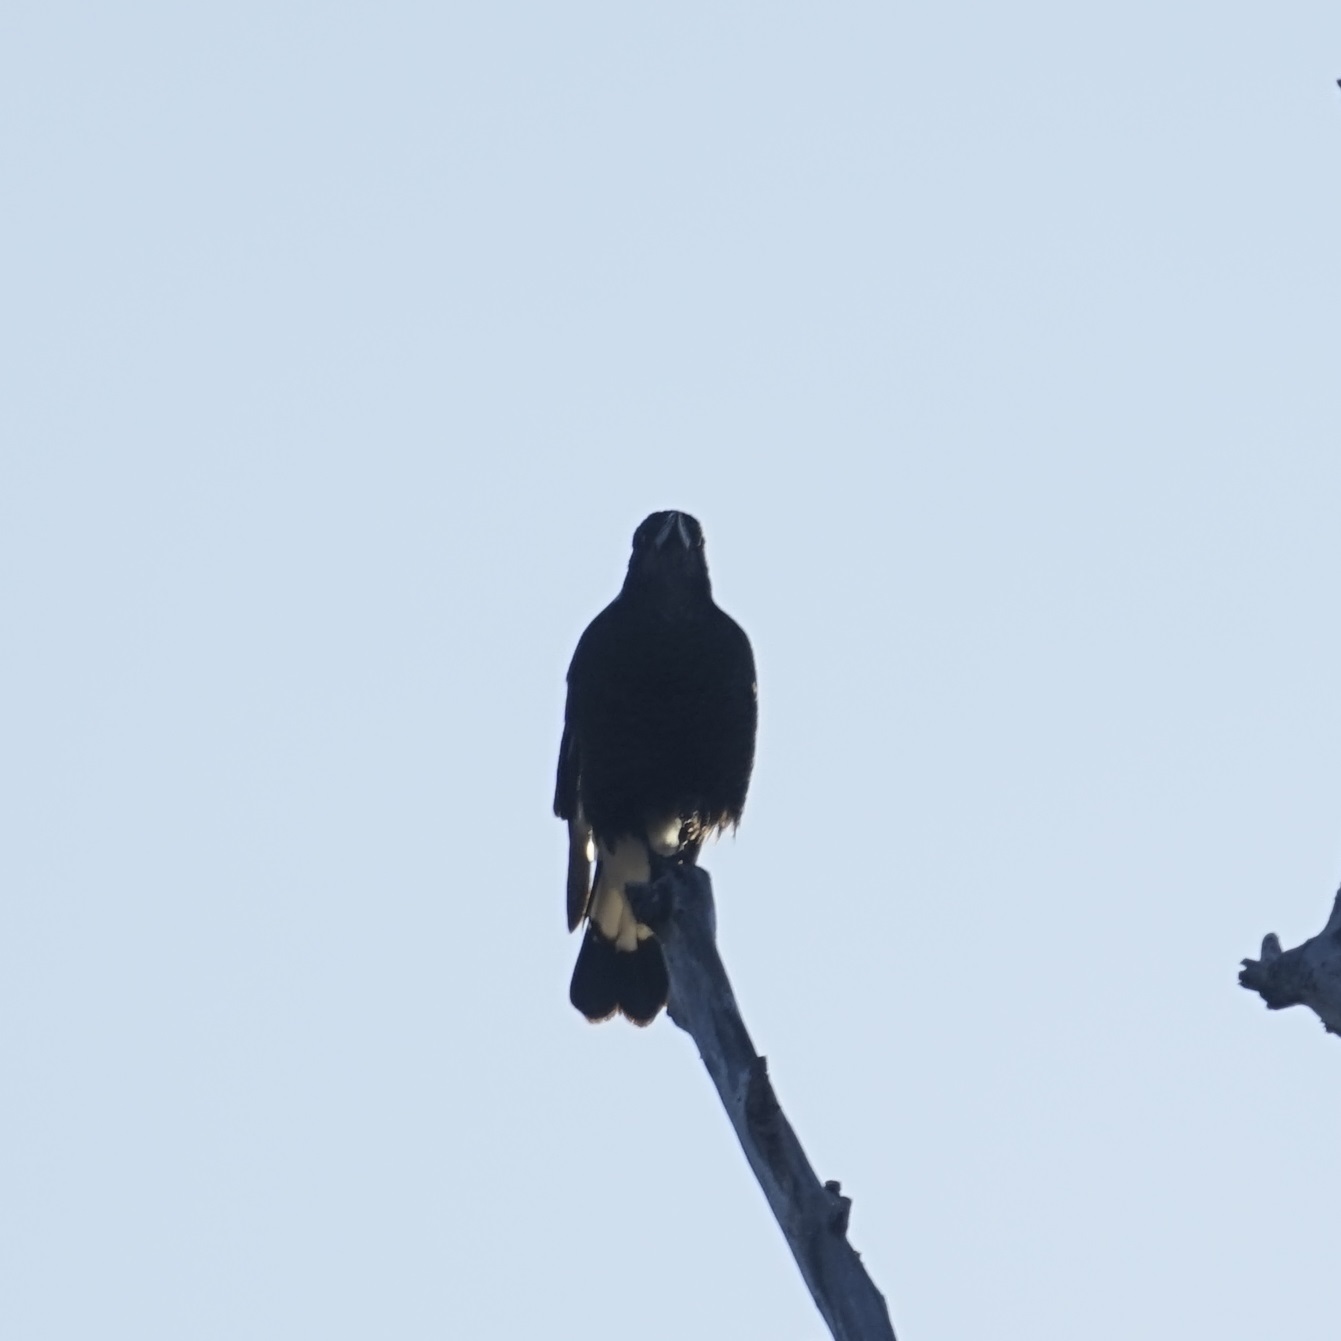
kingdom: Animalia
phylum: Chordata
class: Aves
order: Passeriformes
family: Cracticidae
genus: Gymnorhina
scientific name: Gymnorhina tibicen
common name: Australian magpie
